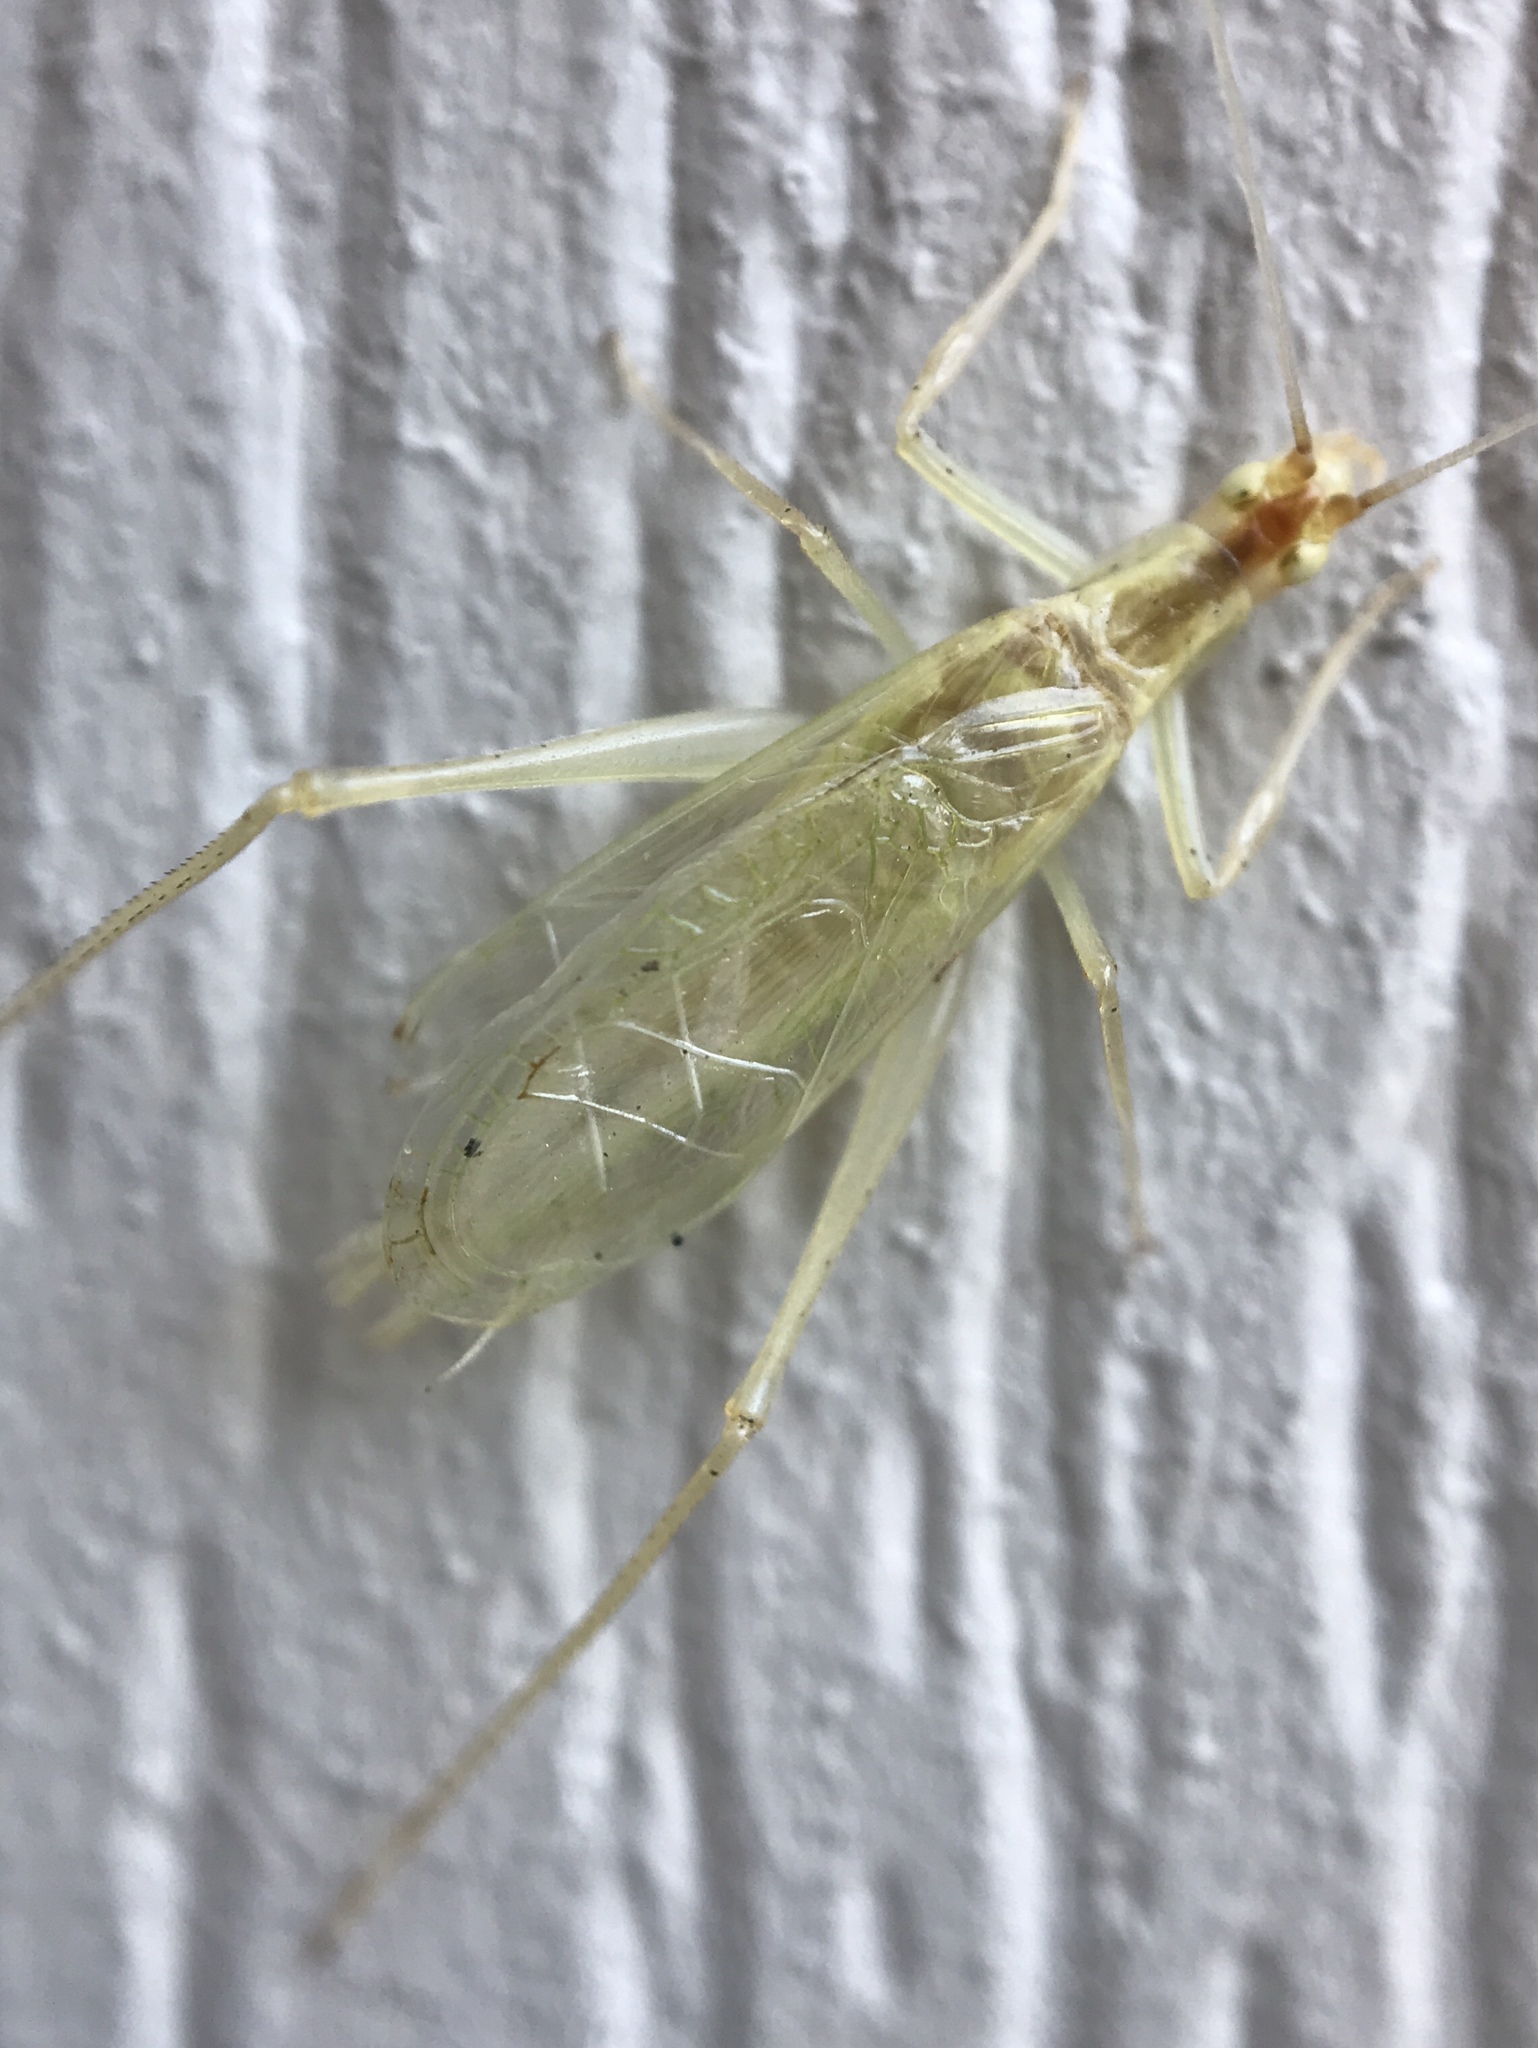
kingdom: Animalia
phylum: Arthropoda
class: Insecta
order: Orthoptera
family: Gryllidae
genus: Oecanthus
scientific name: Oecanthus niveus
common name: Narrow-winged tree cricket
